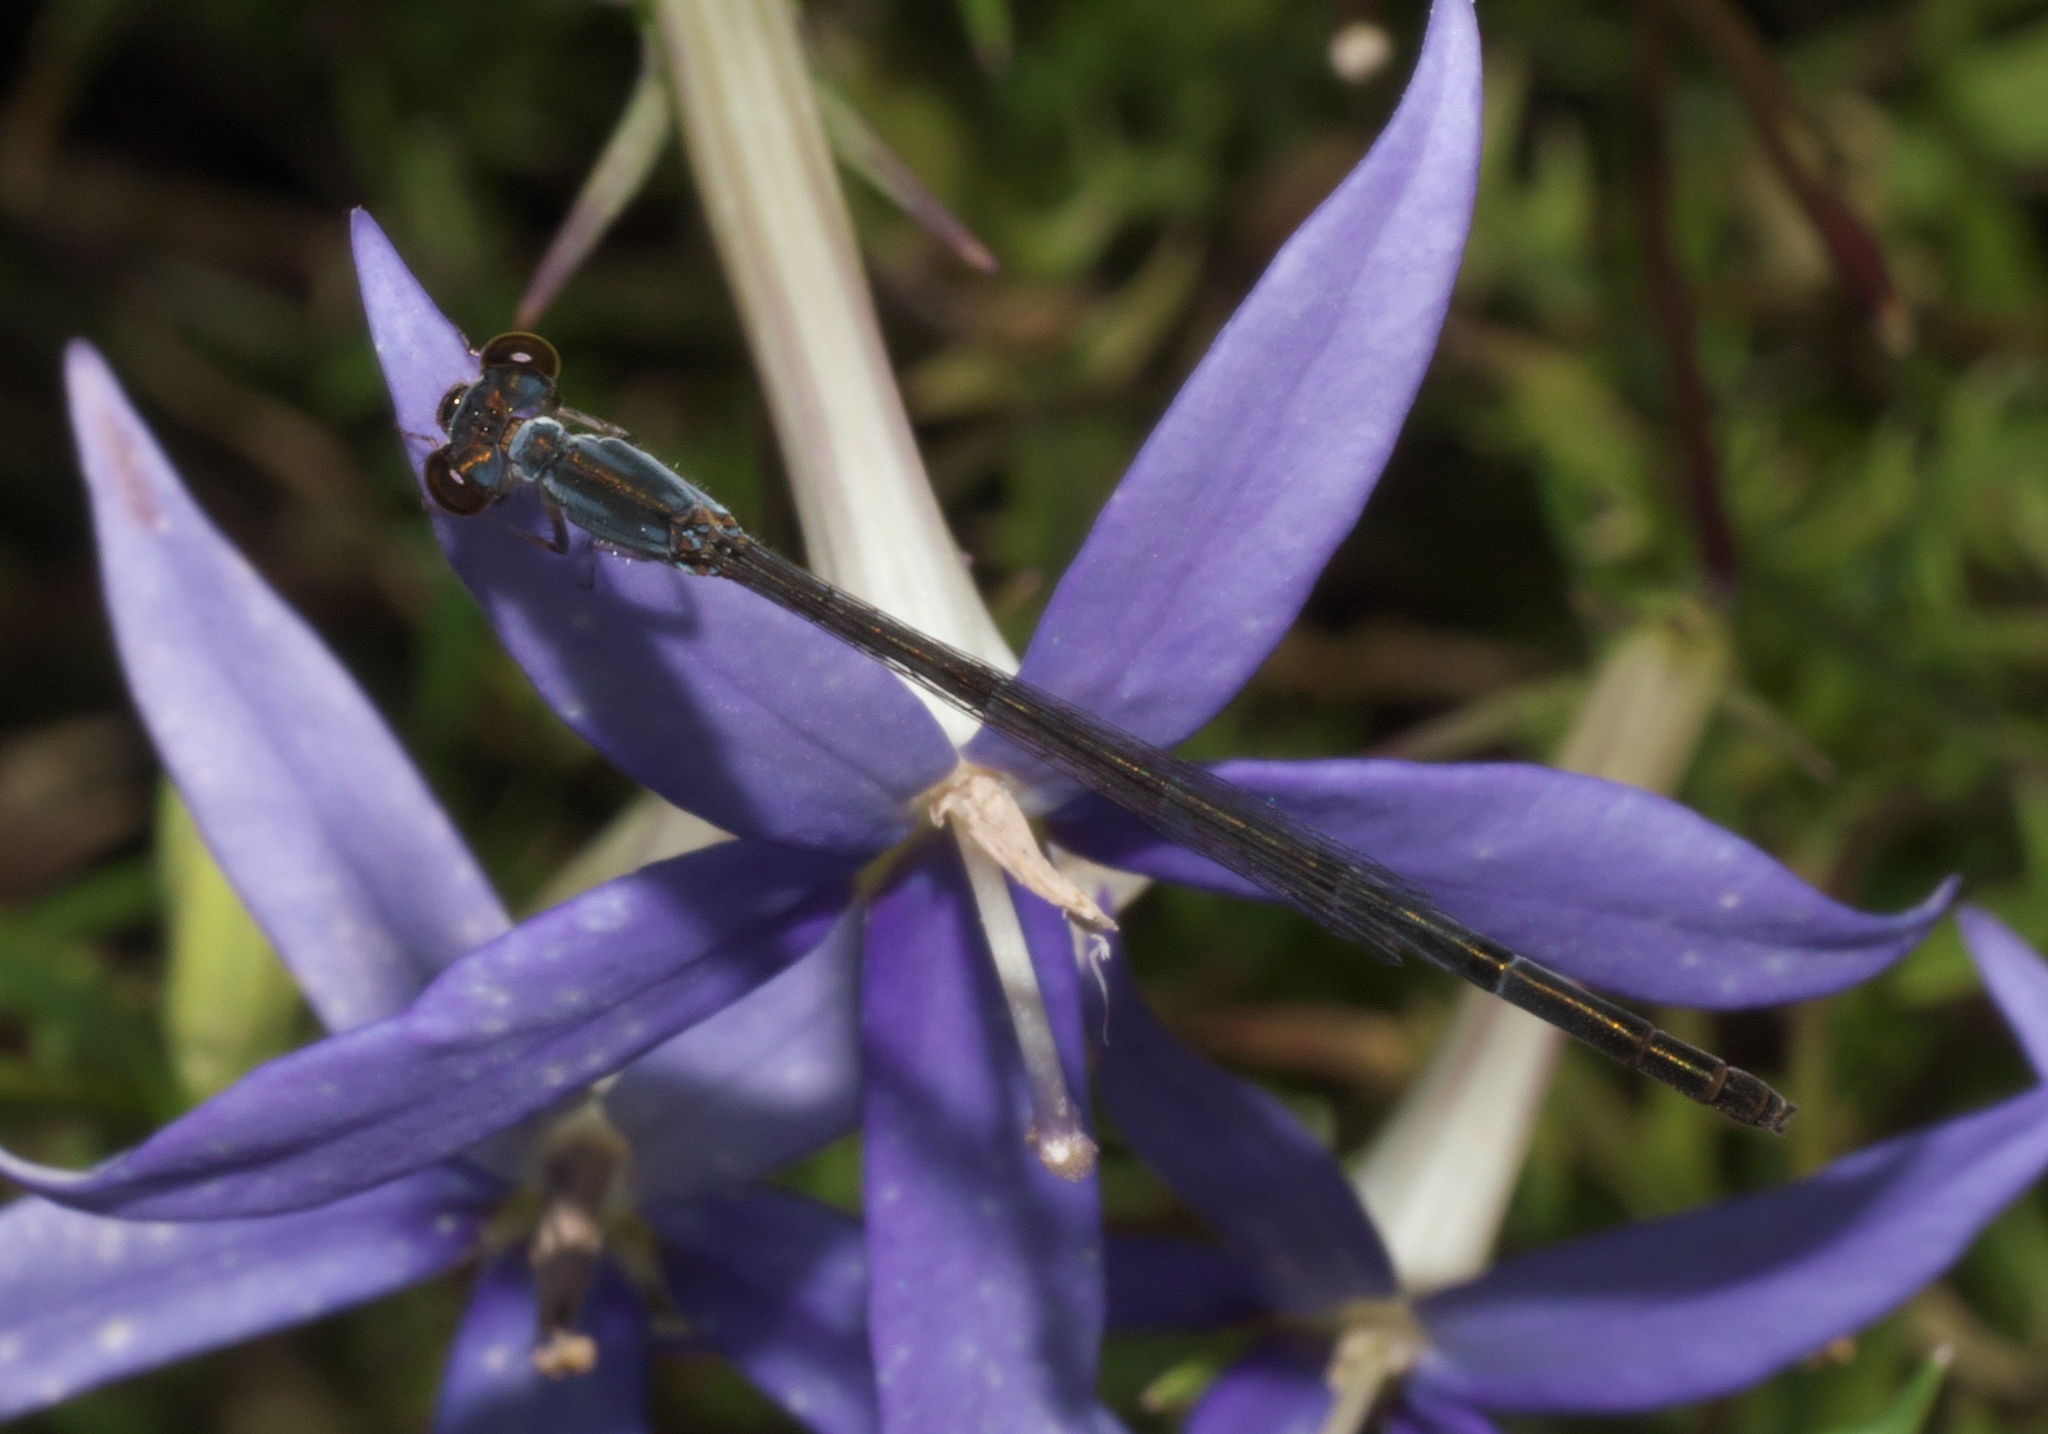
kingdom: Animalia
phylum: Arthropoda
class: Insecta
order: Odonata
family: Coenagrionidae
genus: Ischnura
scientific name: Ischnura posita
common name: Fragile forktail
